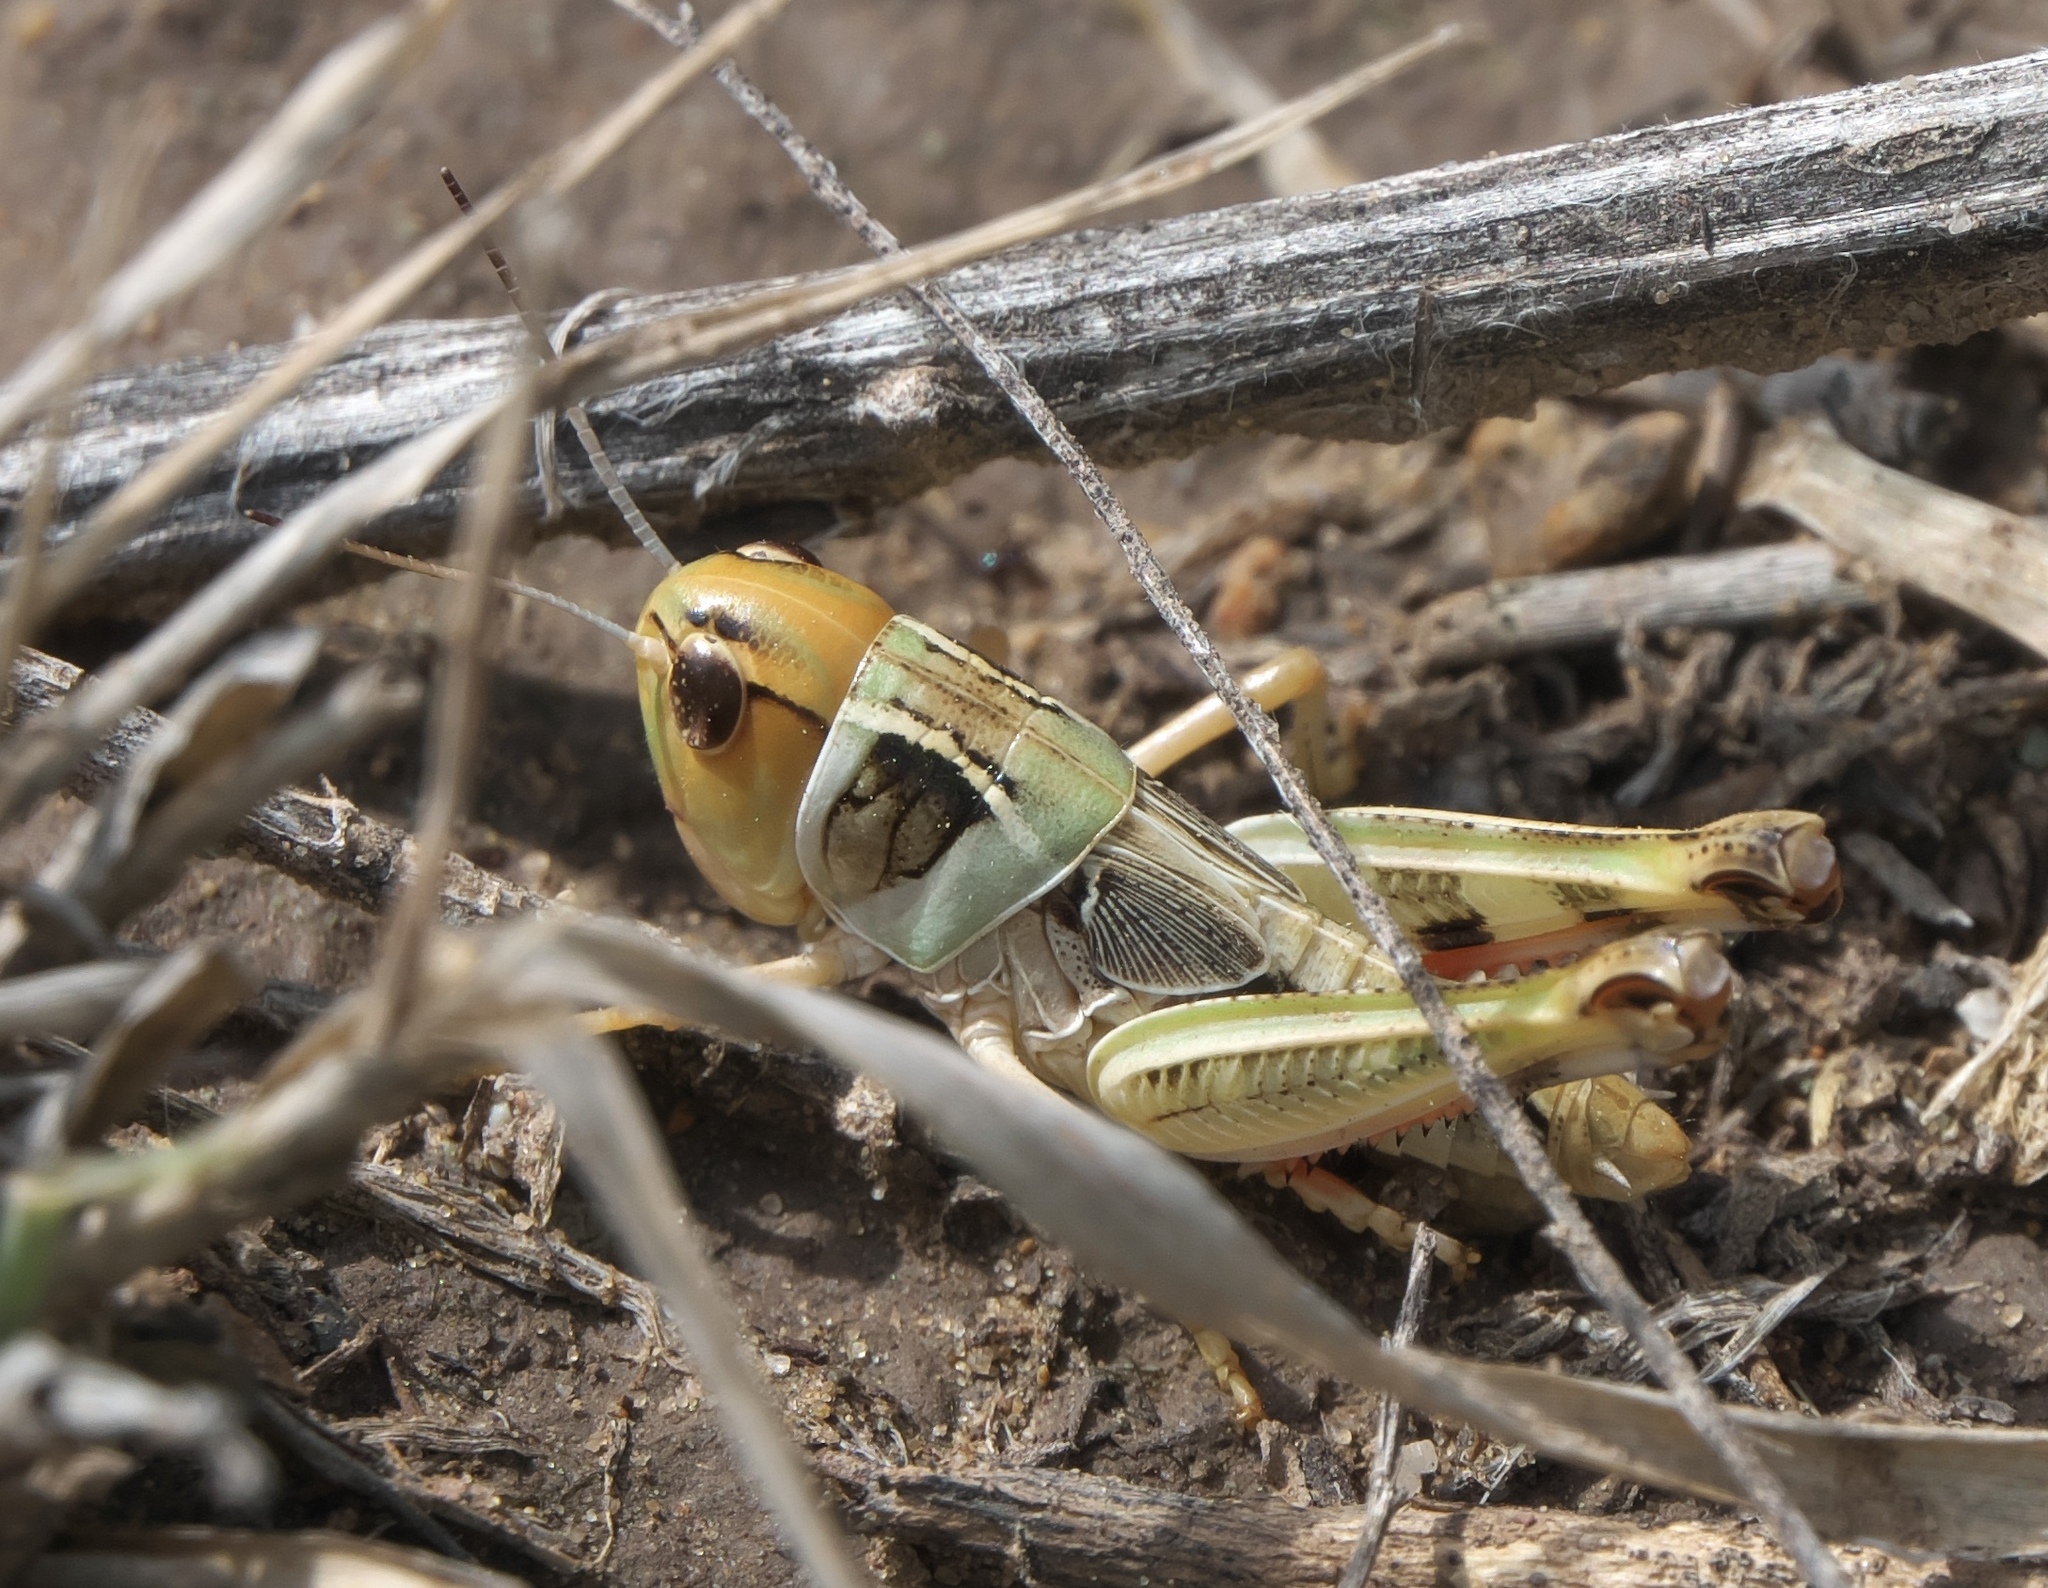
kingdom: Animalia
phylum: Arthropoda
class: Insecta
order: Orthoptera
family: Acrididae
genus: Boopedon
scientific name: Boopedon nubilum
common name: Ebony grasshopper
